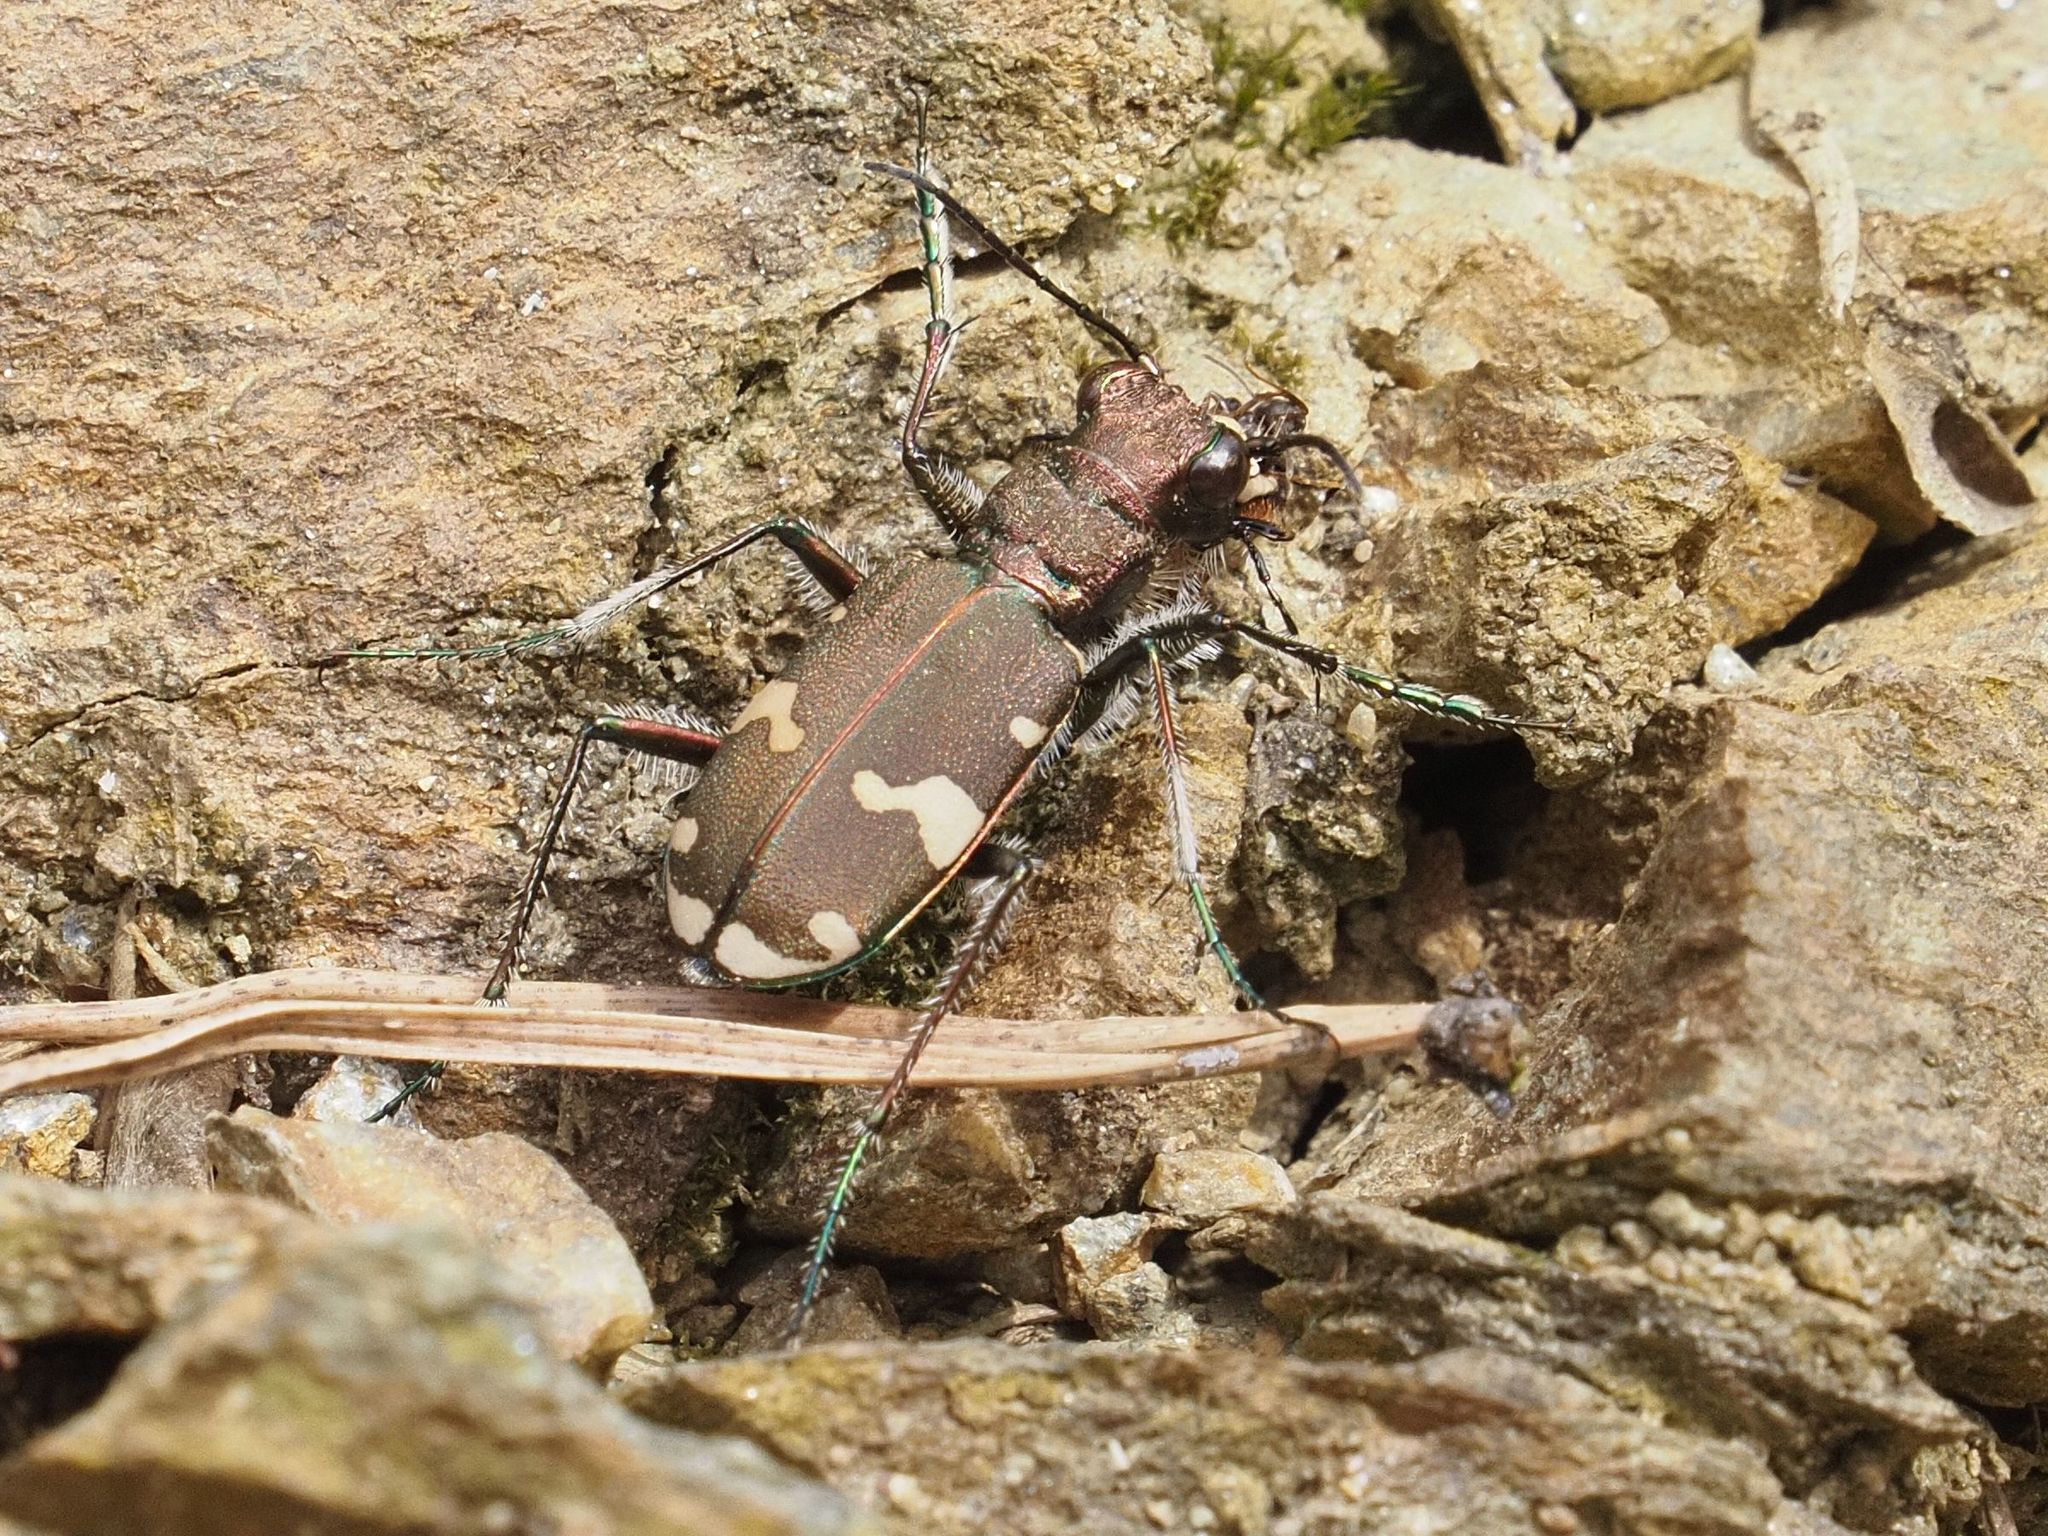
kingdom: Animalia
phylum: Arthropoda
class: Insecta
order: Coleoptera
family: Carabidae
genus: Cicindela
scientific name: Cicindela sylvicola
